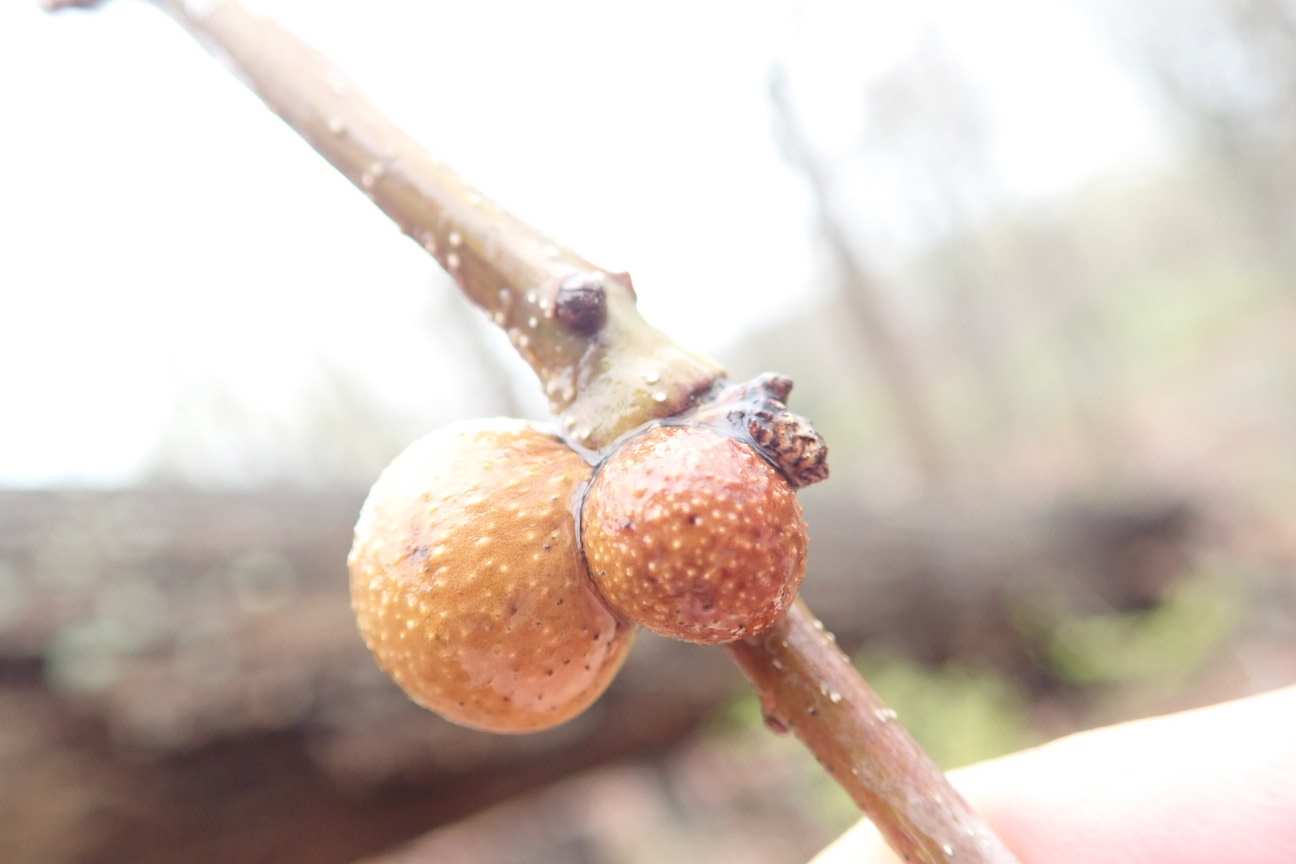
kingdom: Animalia
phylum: Arthropoda
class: Insecta
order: Hymenoptera
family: Cynipidae
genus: Disholcaspis
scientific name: Disholcaspis quercusglobulus
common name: Round bullet gall wasp
